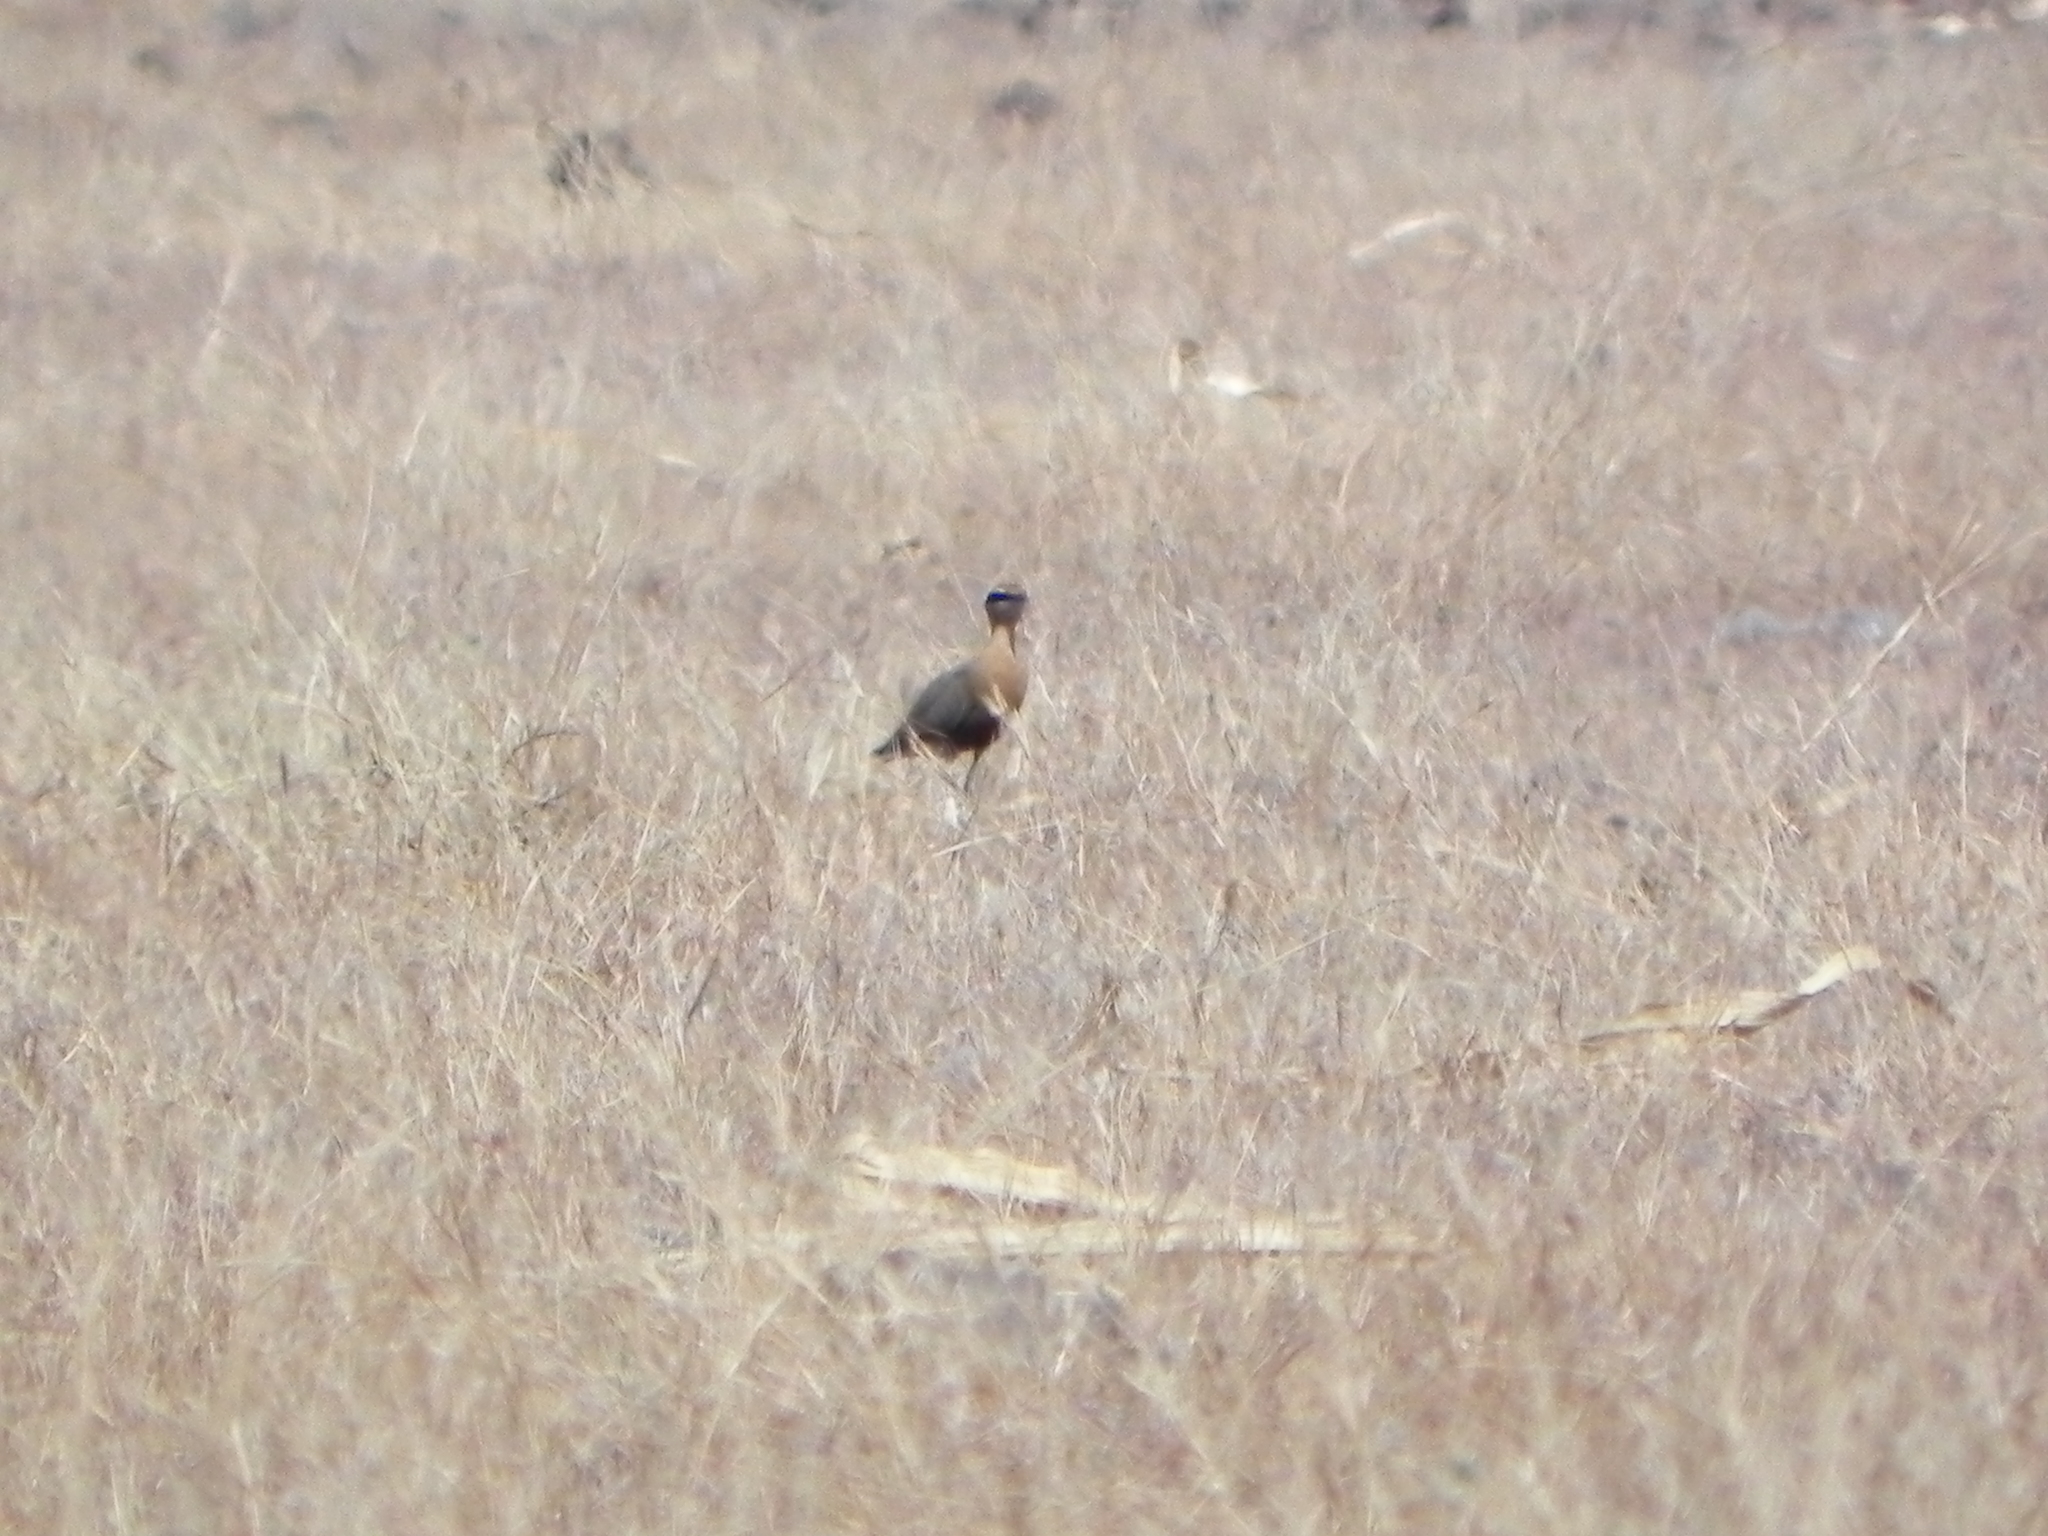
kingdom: Animalia
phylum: Chordata
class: Aves
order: Charadriiformes
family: Glareolidae
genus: Cursorius
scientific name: Cursorius coromandelicus
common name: Indian courser
